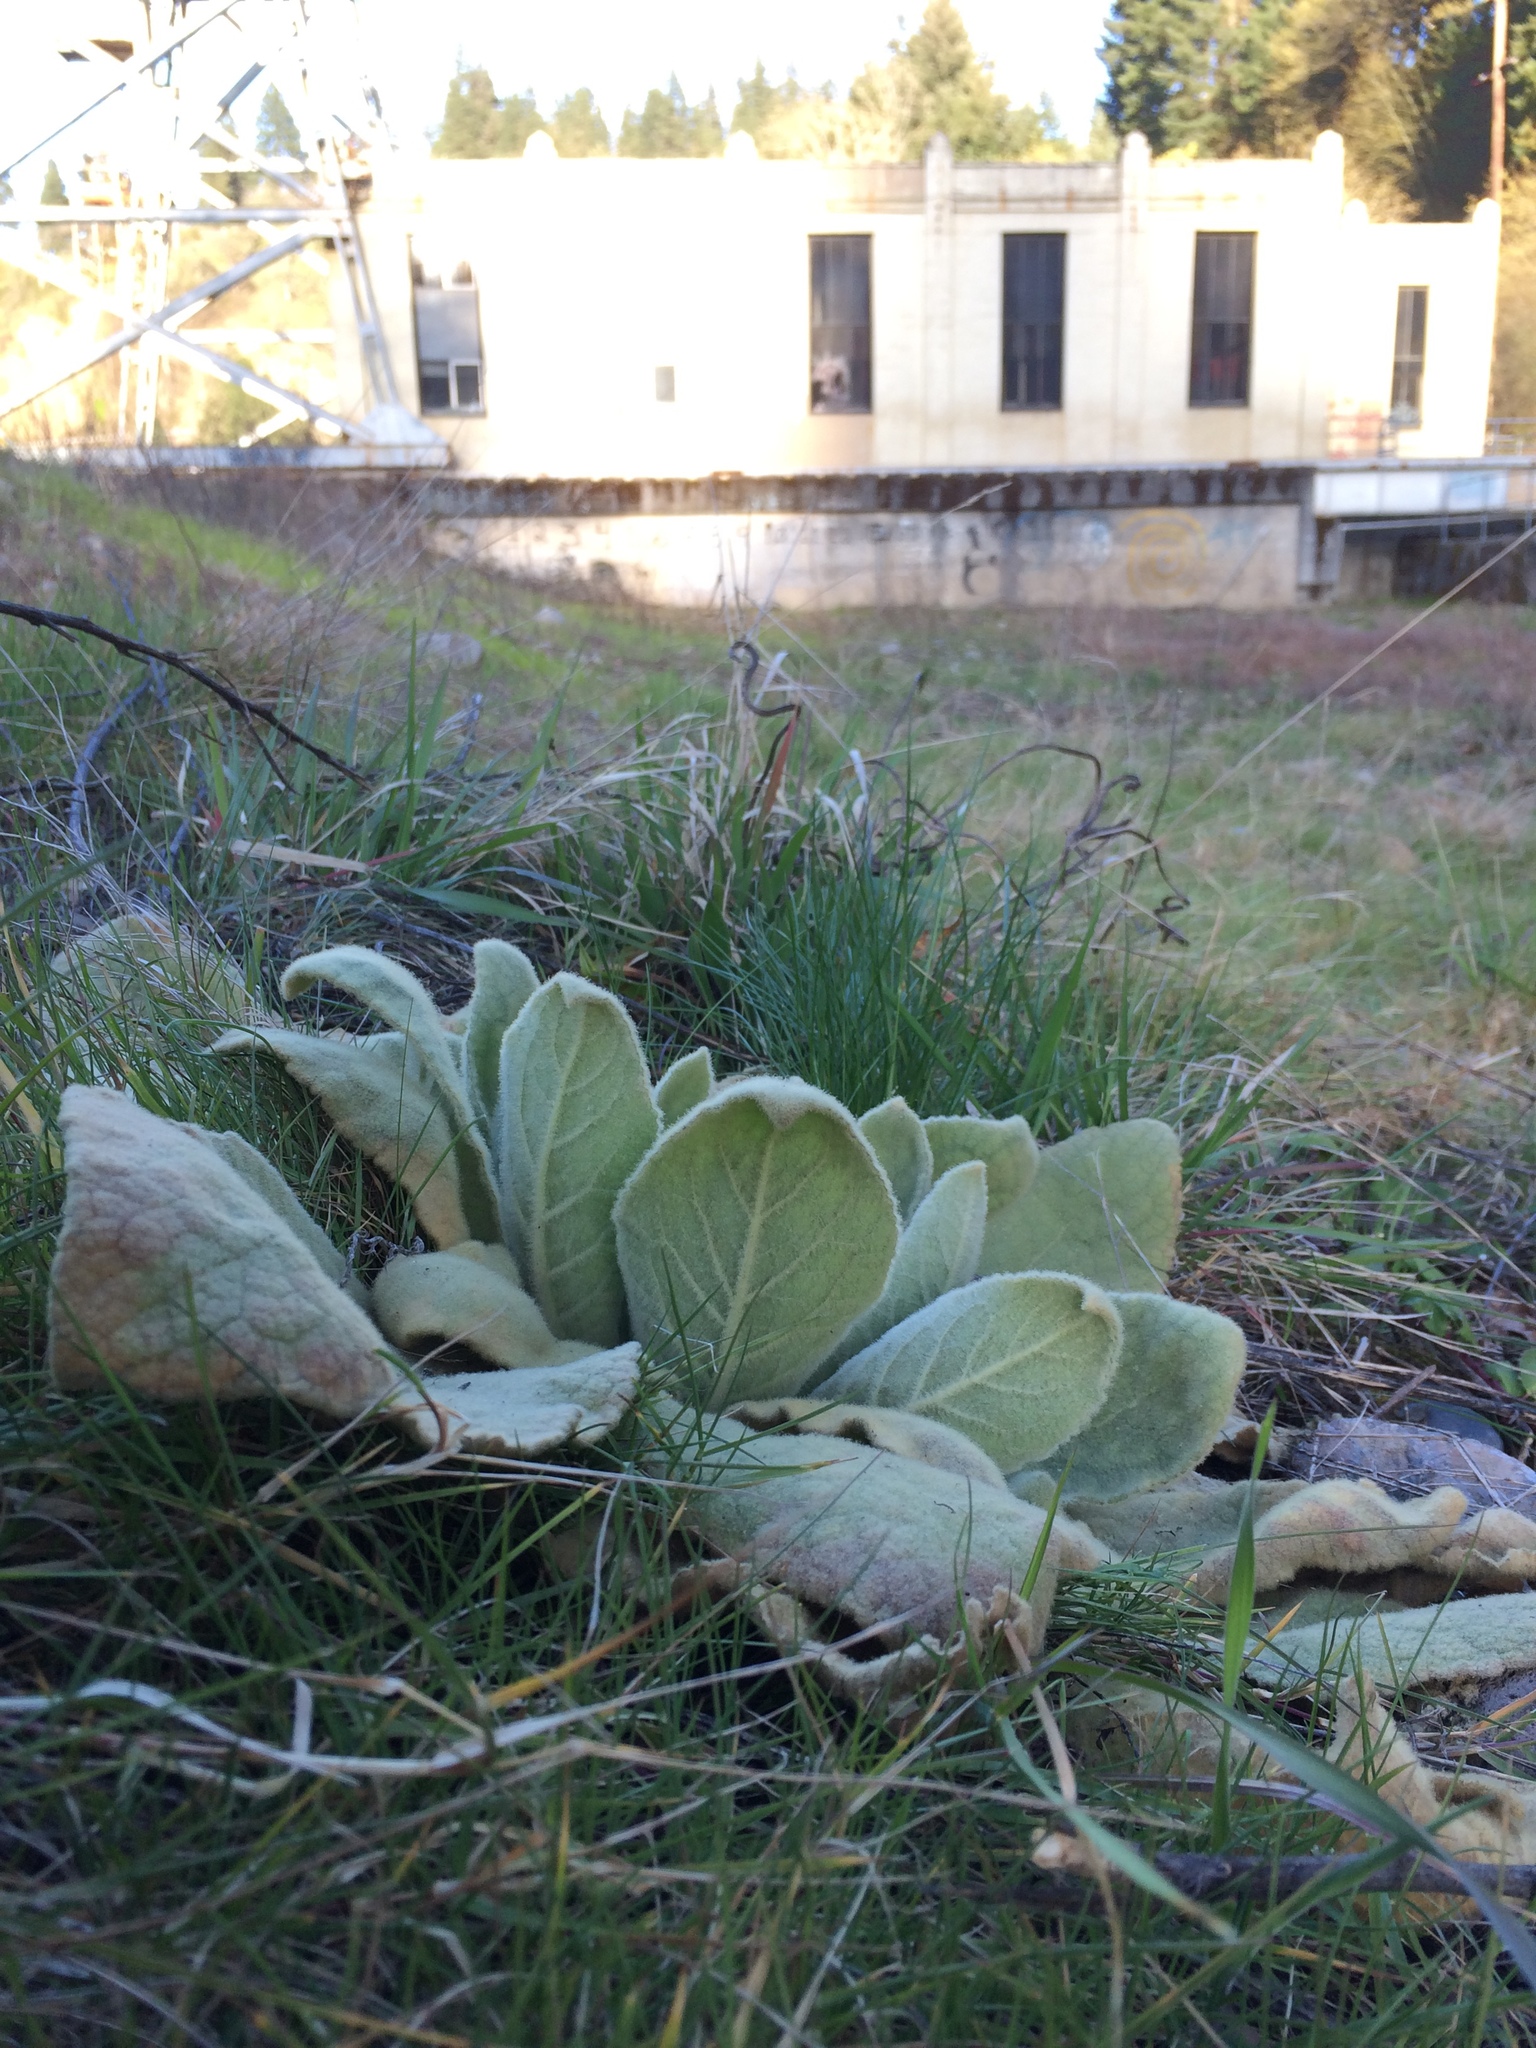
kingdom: Plantae
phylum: Tracheophyta
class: Magnoliopsida
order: Lamiales
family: Scrophulariaceae
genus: Verbascum
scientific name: Verbascum thapsus
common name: Common mullein
